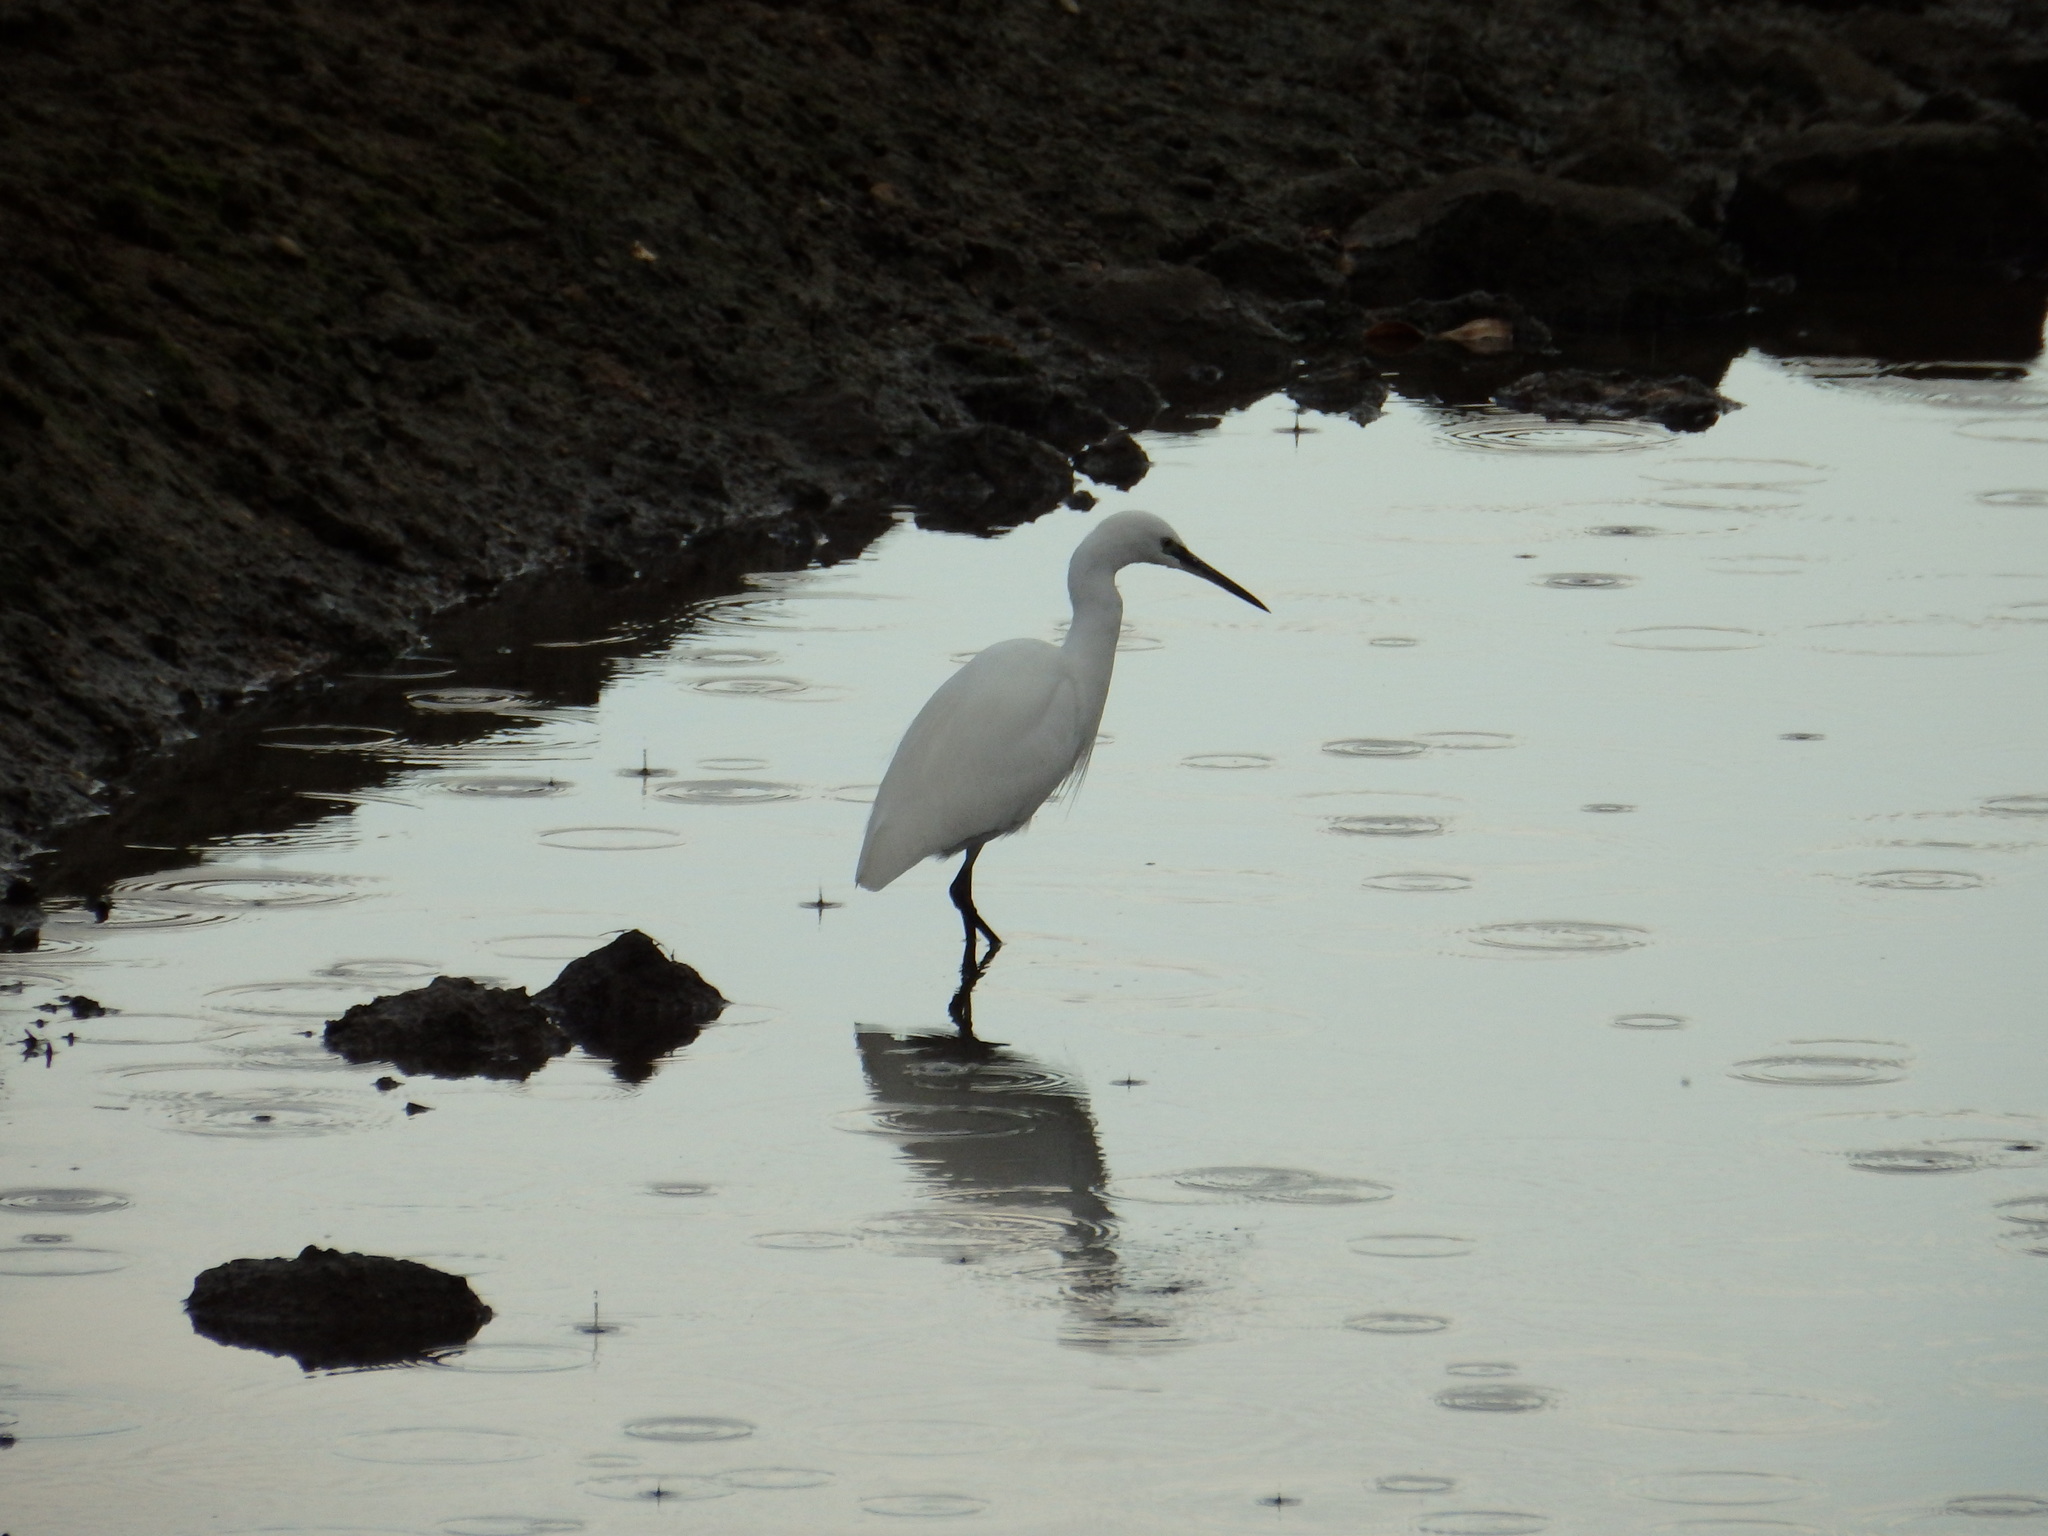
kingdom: Animalia
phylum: Chordata
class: Aves
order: Pelecaniformes
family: Ardeidae
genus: Egretta
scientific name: Egretta garzetta
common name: Little egret
